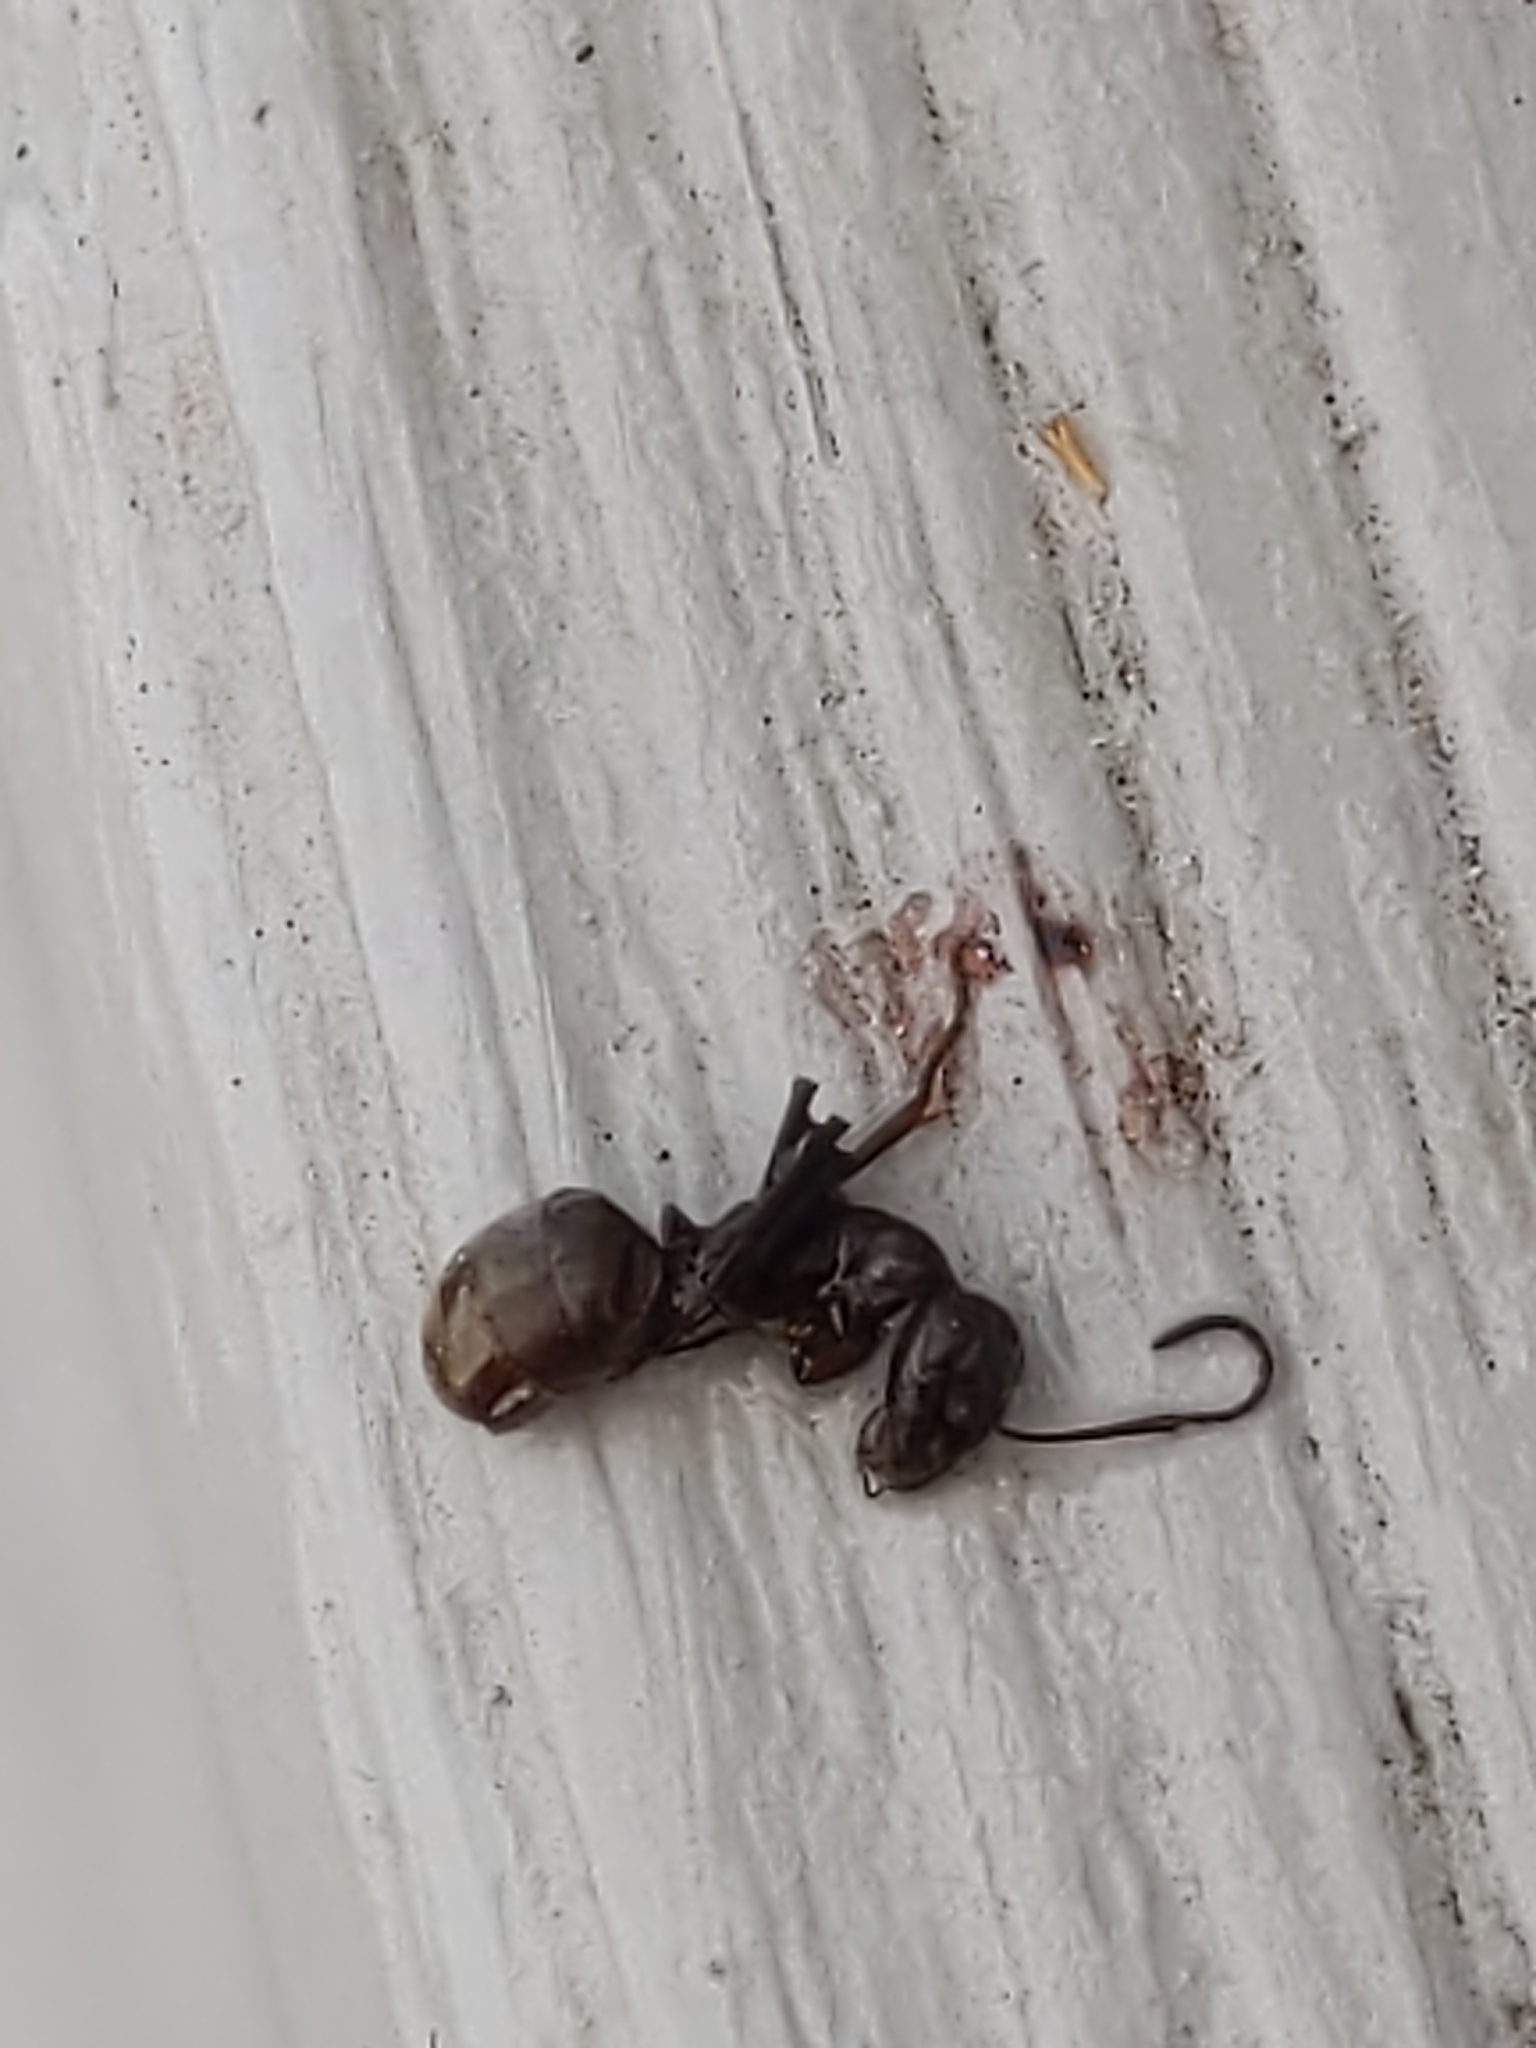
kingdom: Animalia
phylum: Arthropoda
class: Insecta
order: Hymenoptera
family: Formicidae
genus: Formica
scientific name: Formica
